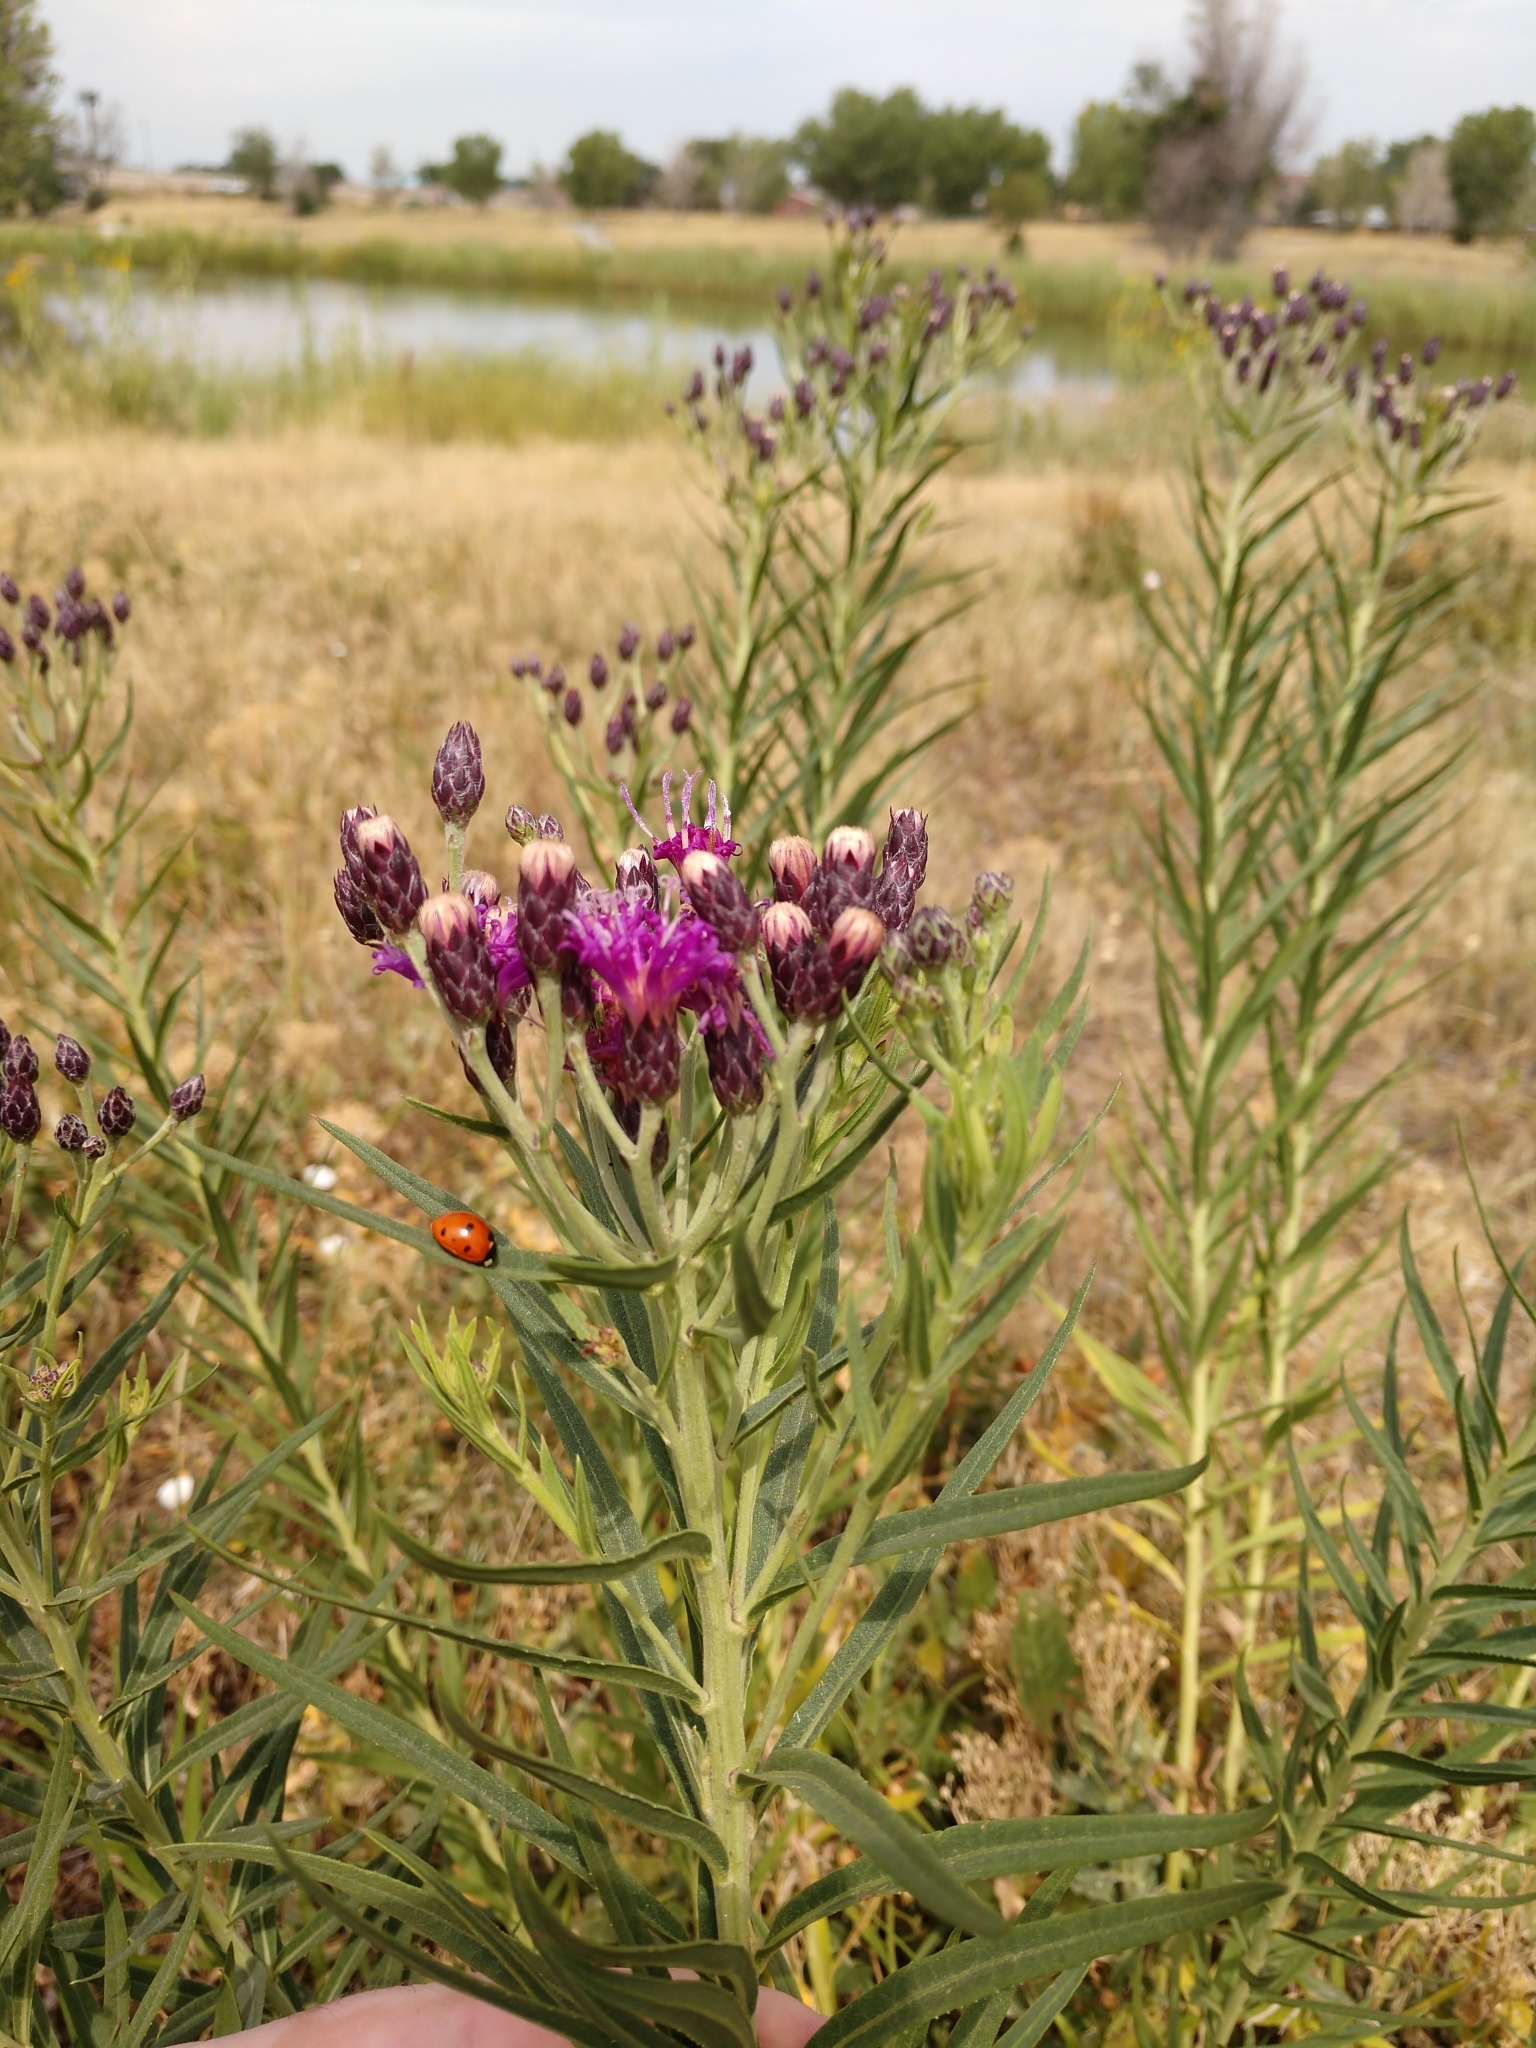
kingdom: Animalia
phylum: Arthropoda
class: Insecta
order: Coleoptera
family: Coccinellidae
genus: Coccinella
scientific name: Coccinella septempunctata
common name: Sevenspotted lady beetle
